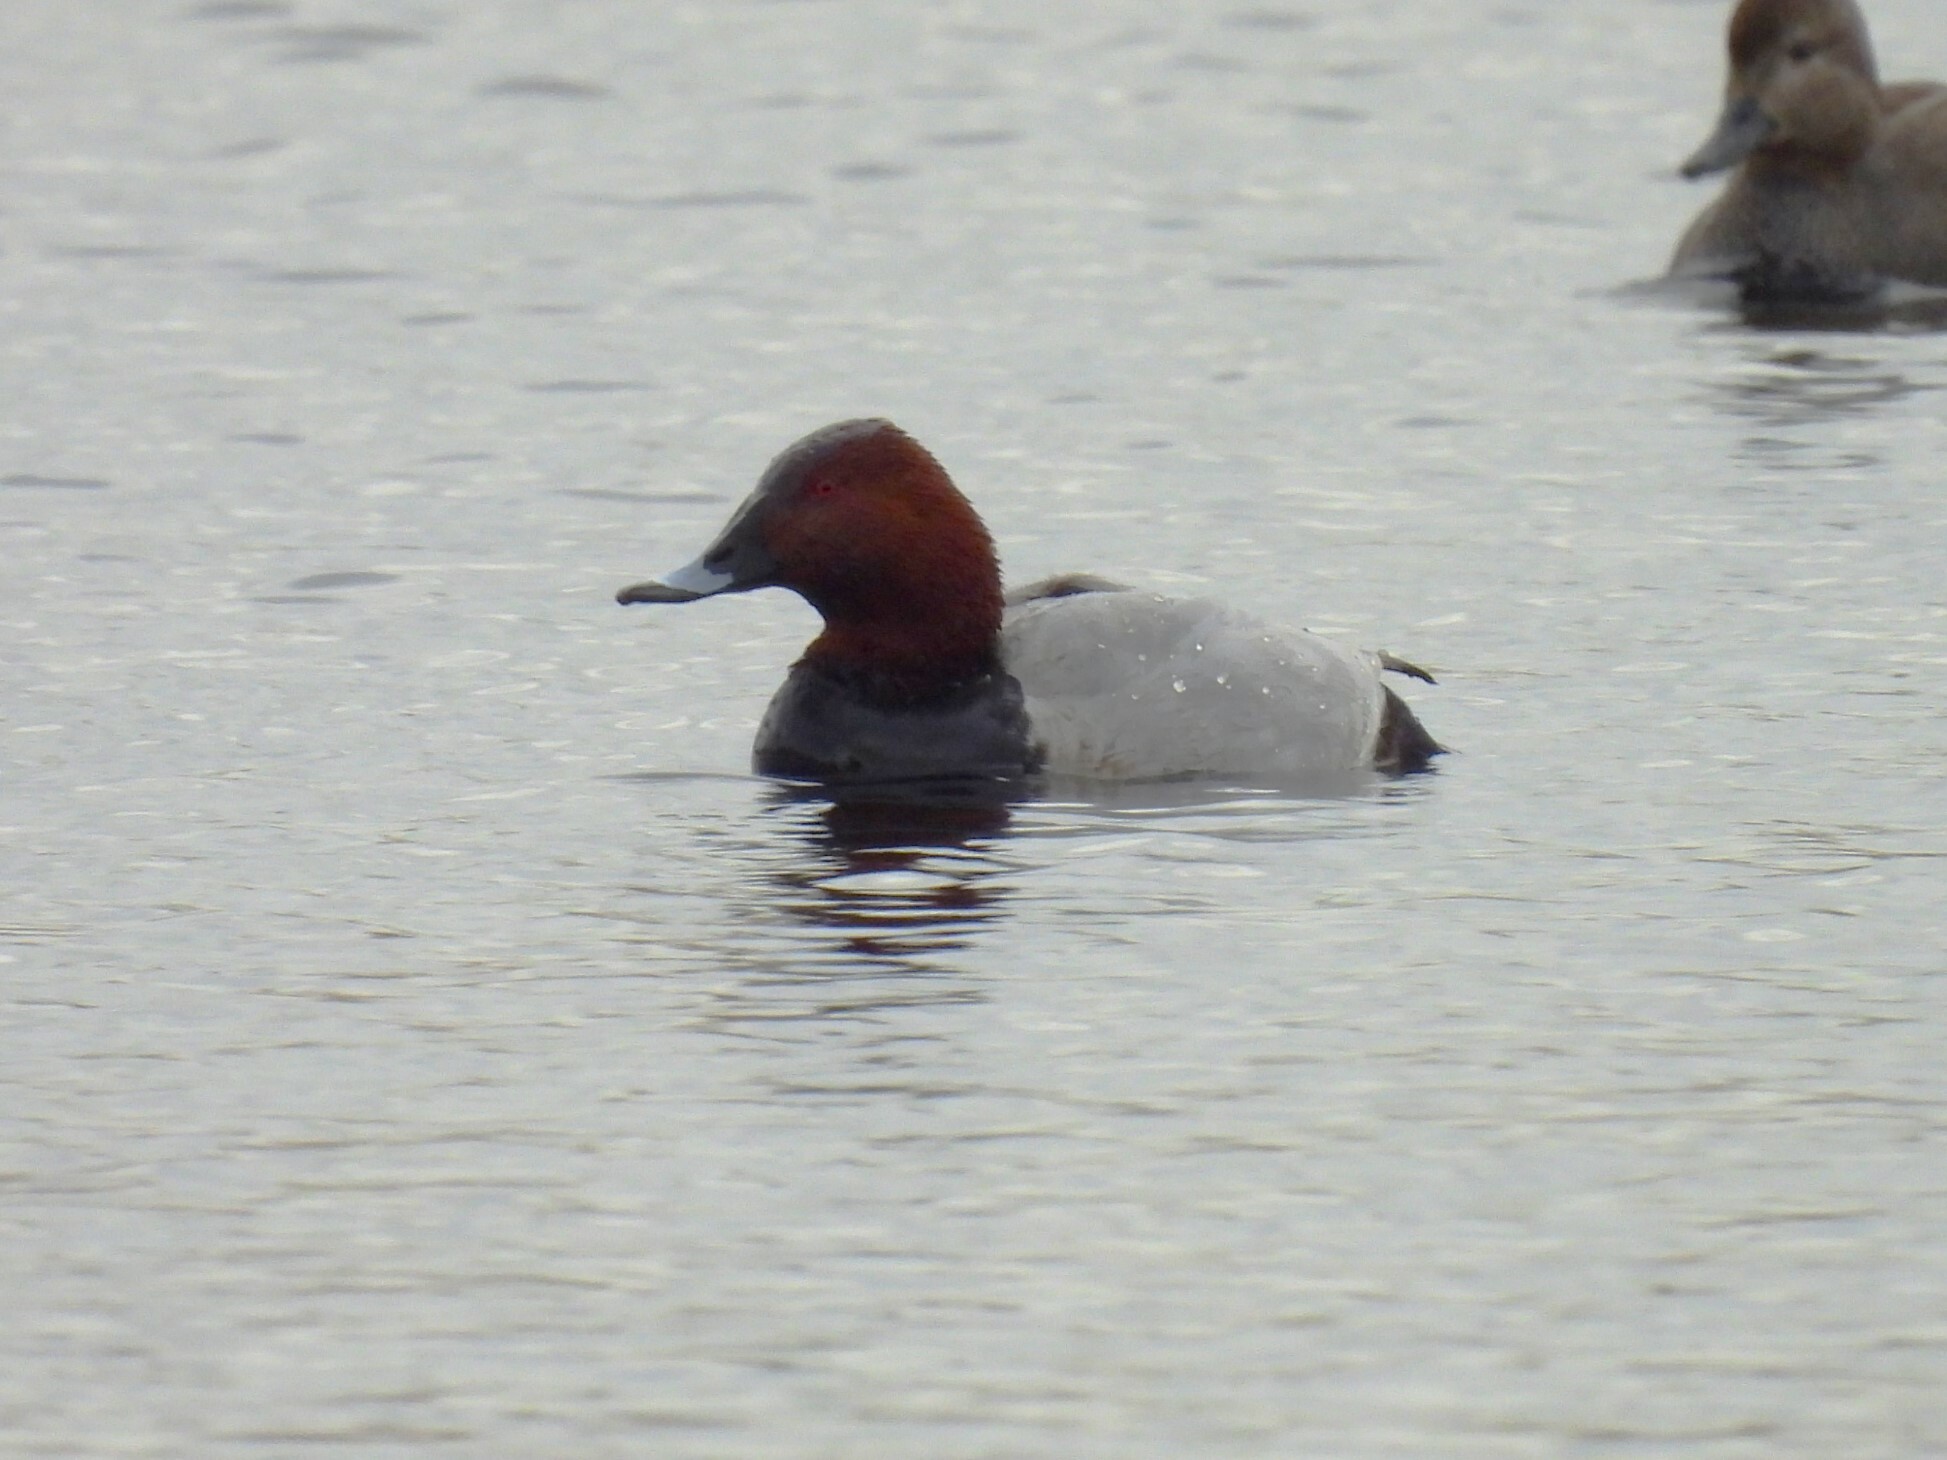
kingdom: Animalia
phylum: Chordata
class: Aves
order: Anseriformes
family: Anatidae
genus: Aythya
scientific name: Aythya ferina
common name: Common pochard
